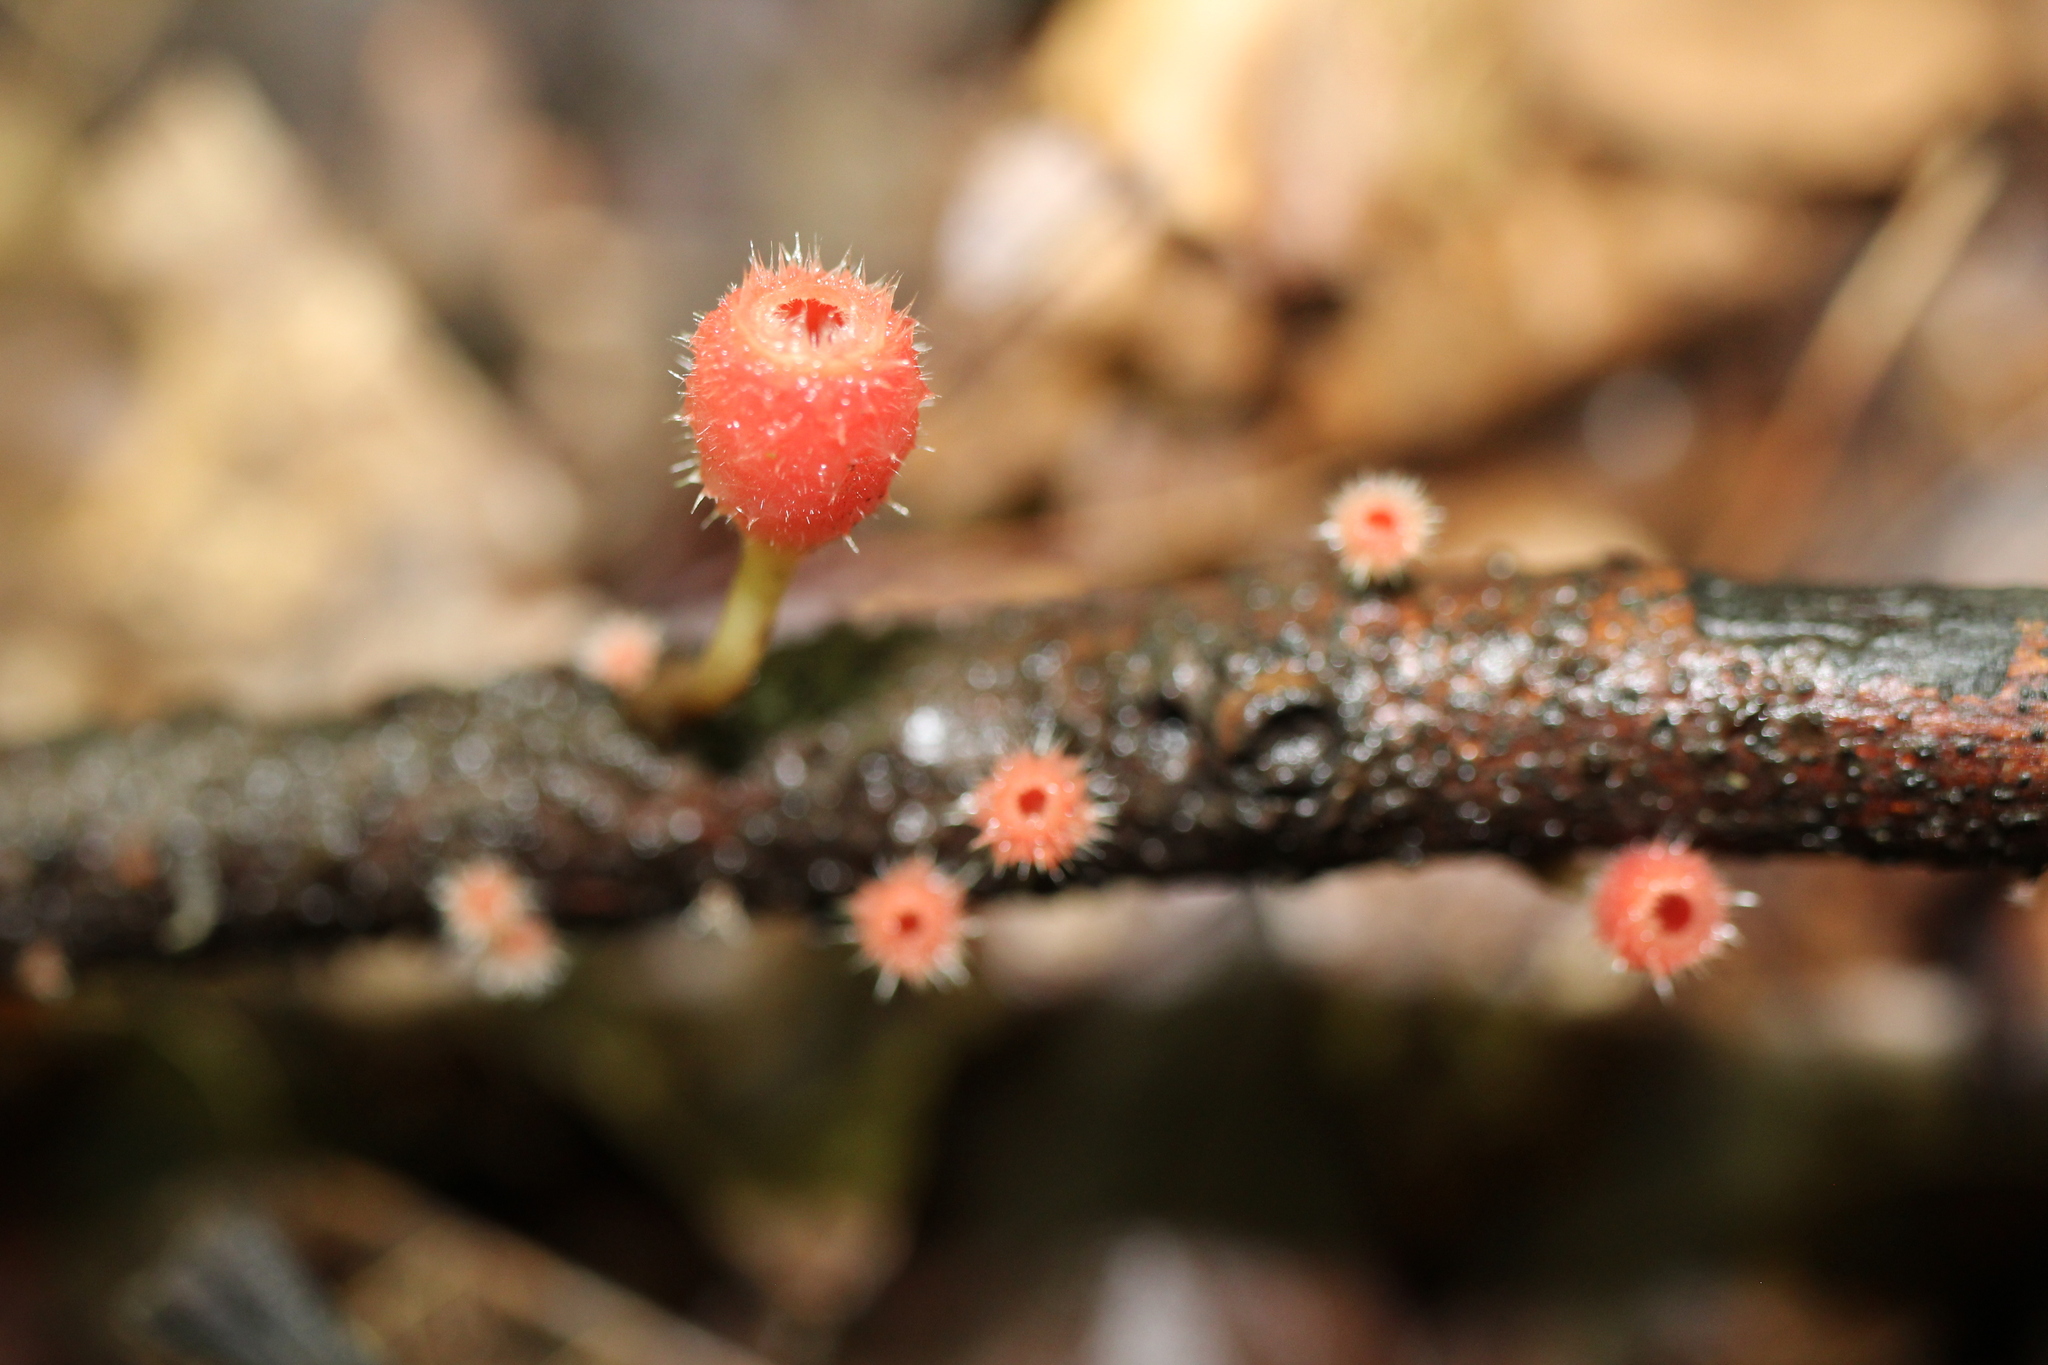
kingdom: Fungi
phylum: Ascomycota
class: Pezizomycetes
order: Pezizales
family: Sarcoscyphaceae
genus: Microstoma
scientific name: Microstoma floccosum
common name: Pink fringed faery cup
